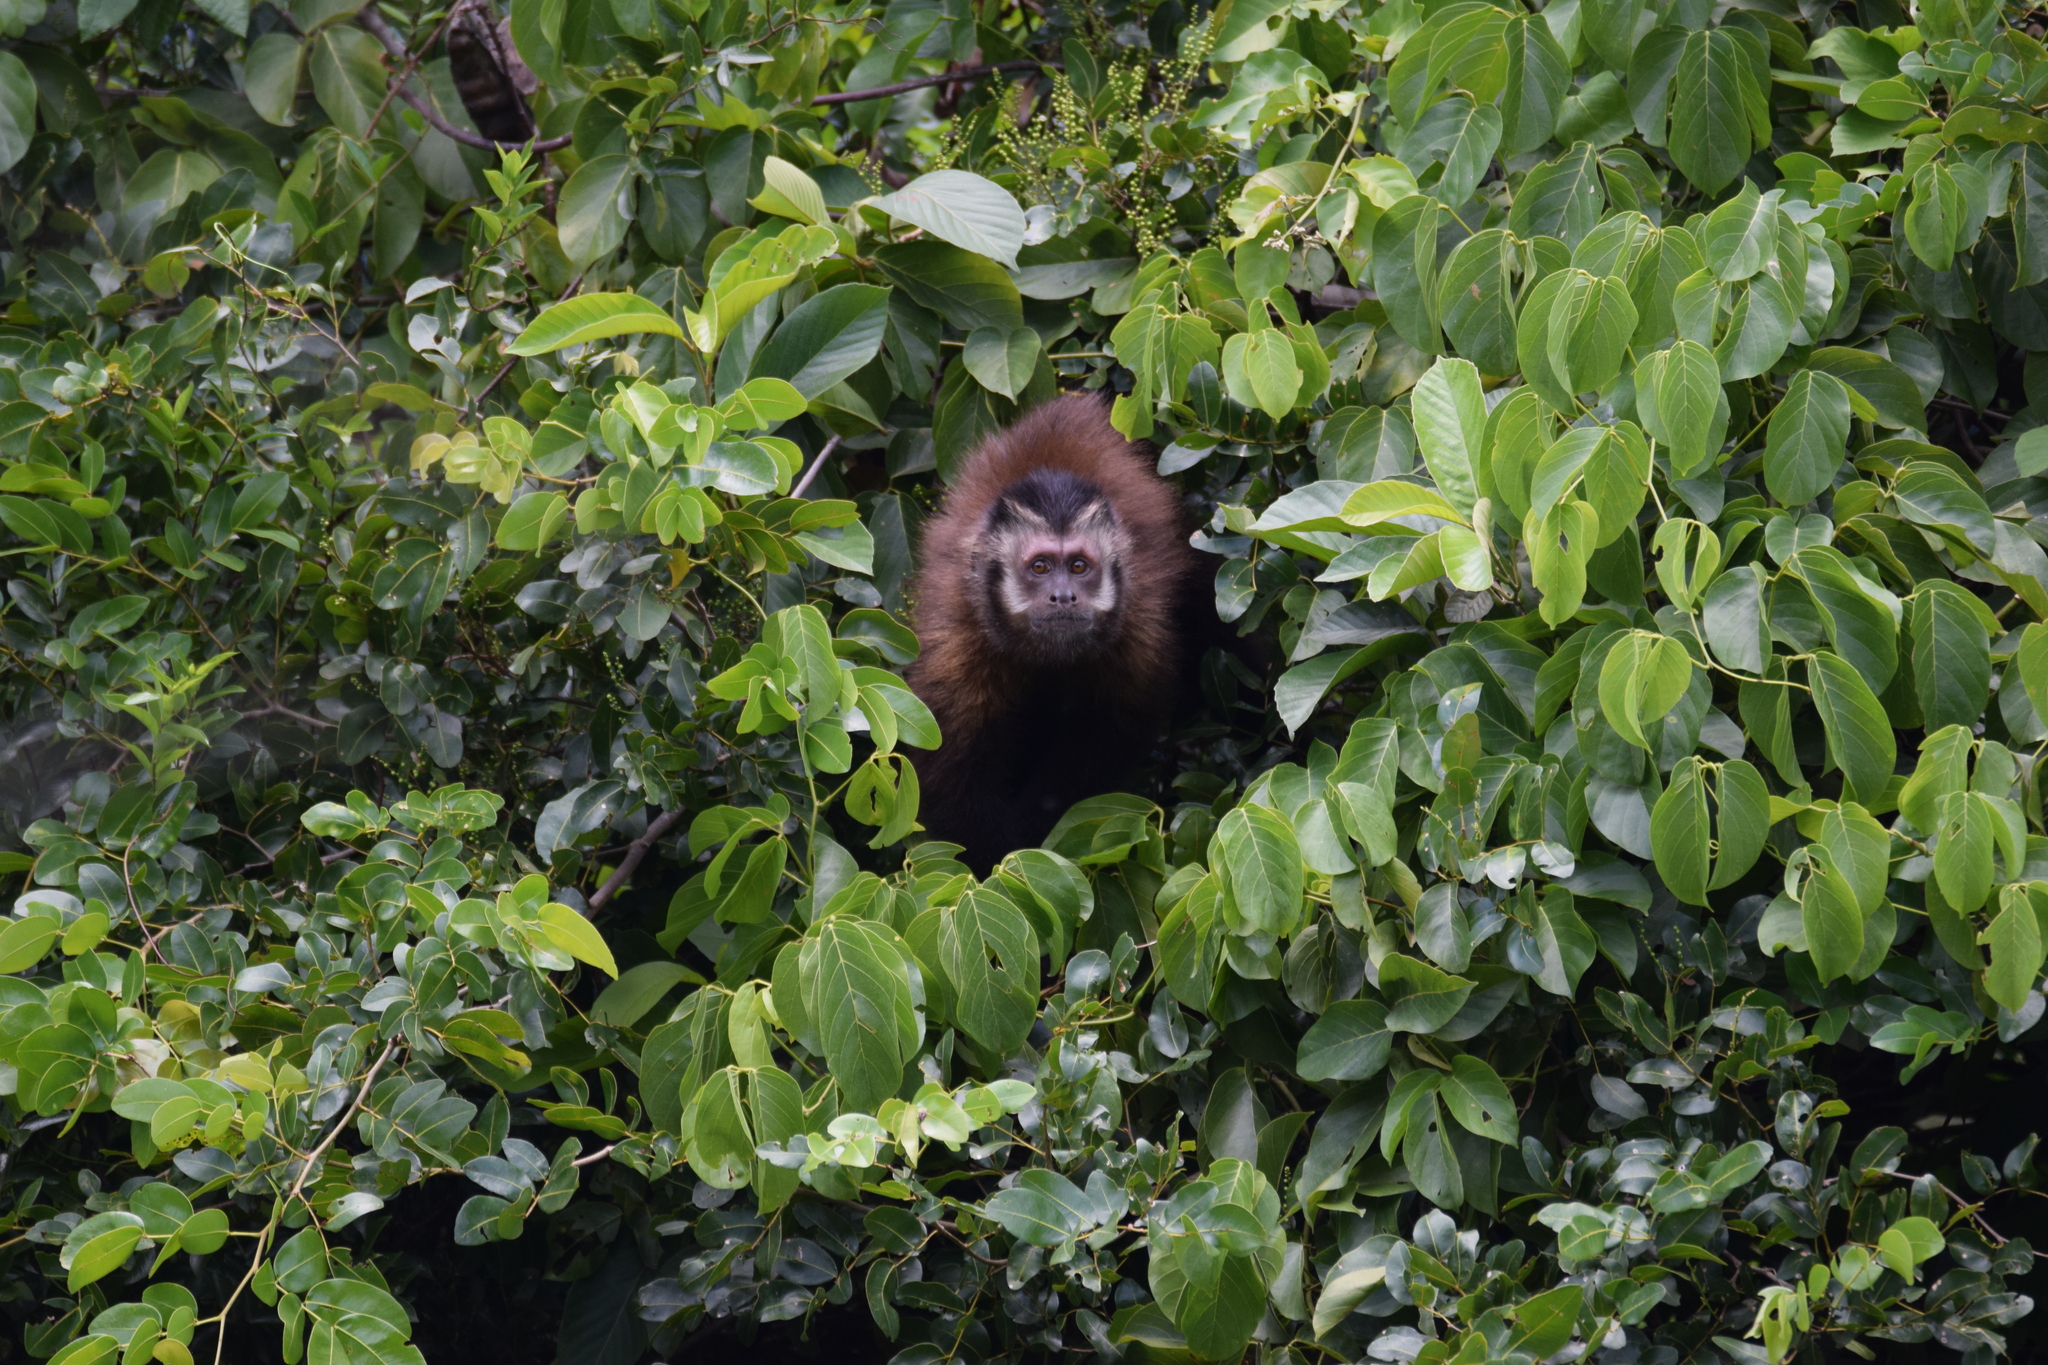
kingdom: Animalia
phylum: Chordata
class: Mammalia
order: Primates
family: Cebidae
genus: Sapajus
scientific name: Sapajus nigritus
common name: Black capuchin
